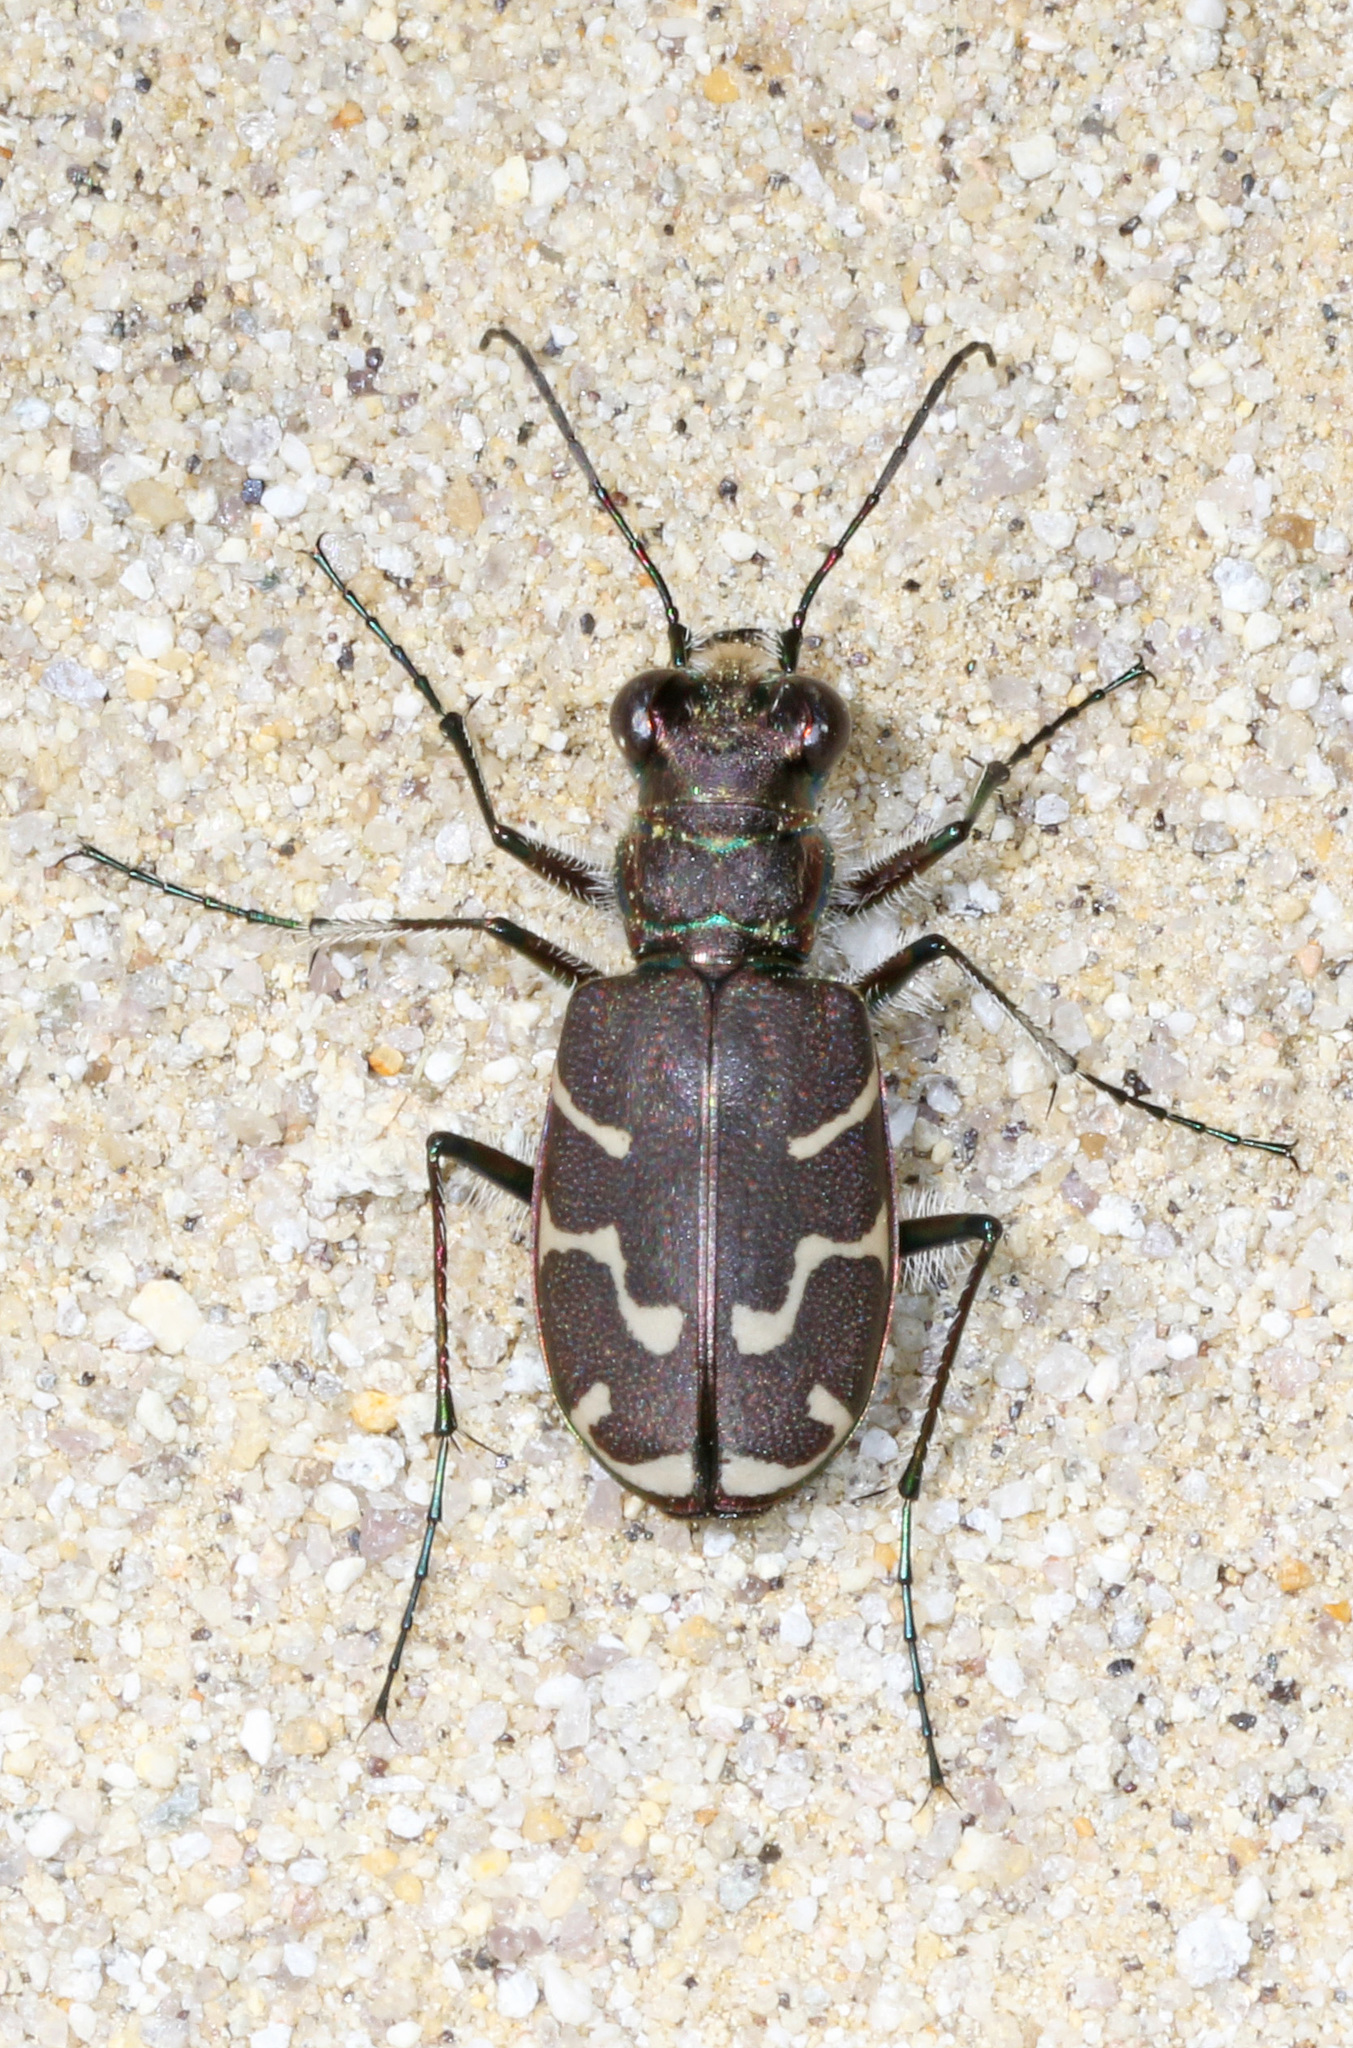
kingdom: Animalia
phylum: Arthropoda
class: Insecta
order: Coleoptera
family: Carabidae
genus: Cicindela
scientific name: Cicindela tranquebarica
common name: Oblique-lined tiger beetle
